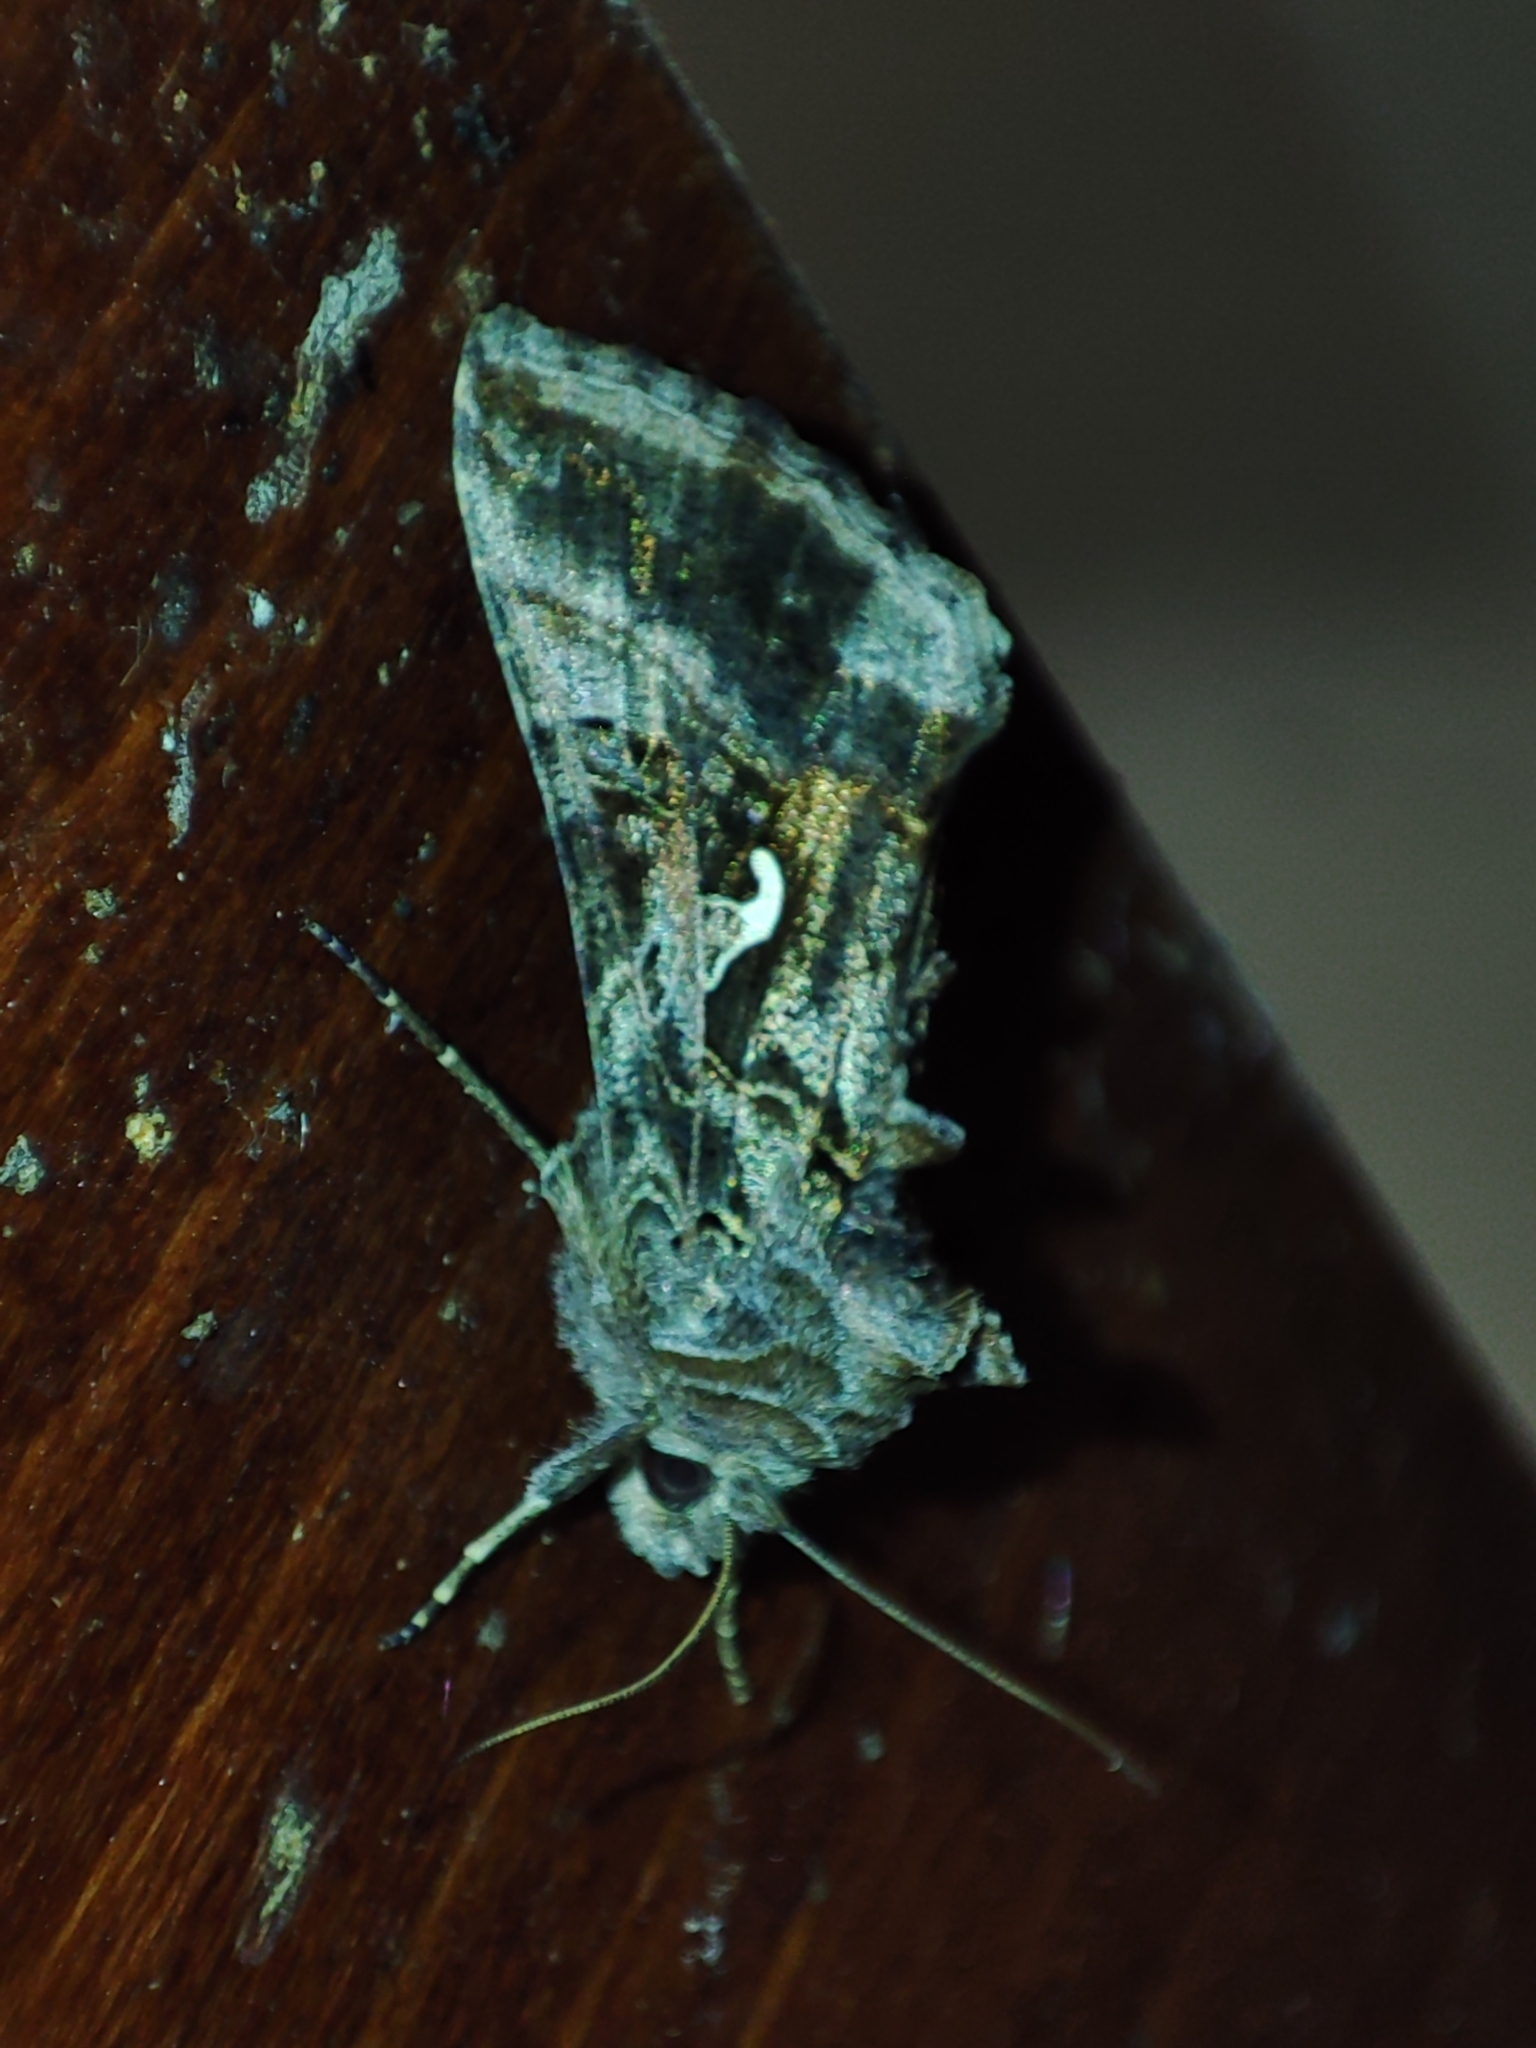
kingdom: Animalia
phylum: Arthropoda
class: Insecta
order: Lepidoptera
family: Noctuidae
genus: Autographa
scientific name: Autographa gamma
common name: Silver y
